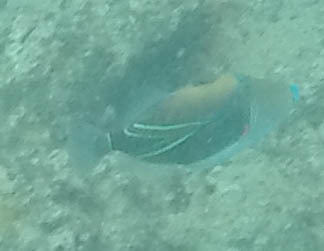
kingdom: Animalia
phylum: Chordata
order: Tetraodontiformes
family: Balistidae
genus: Rhinecanthus
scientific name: Rhinecanthus rectangulus
